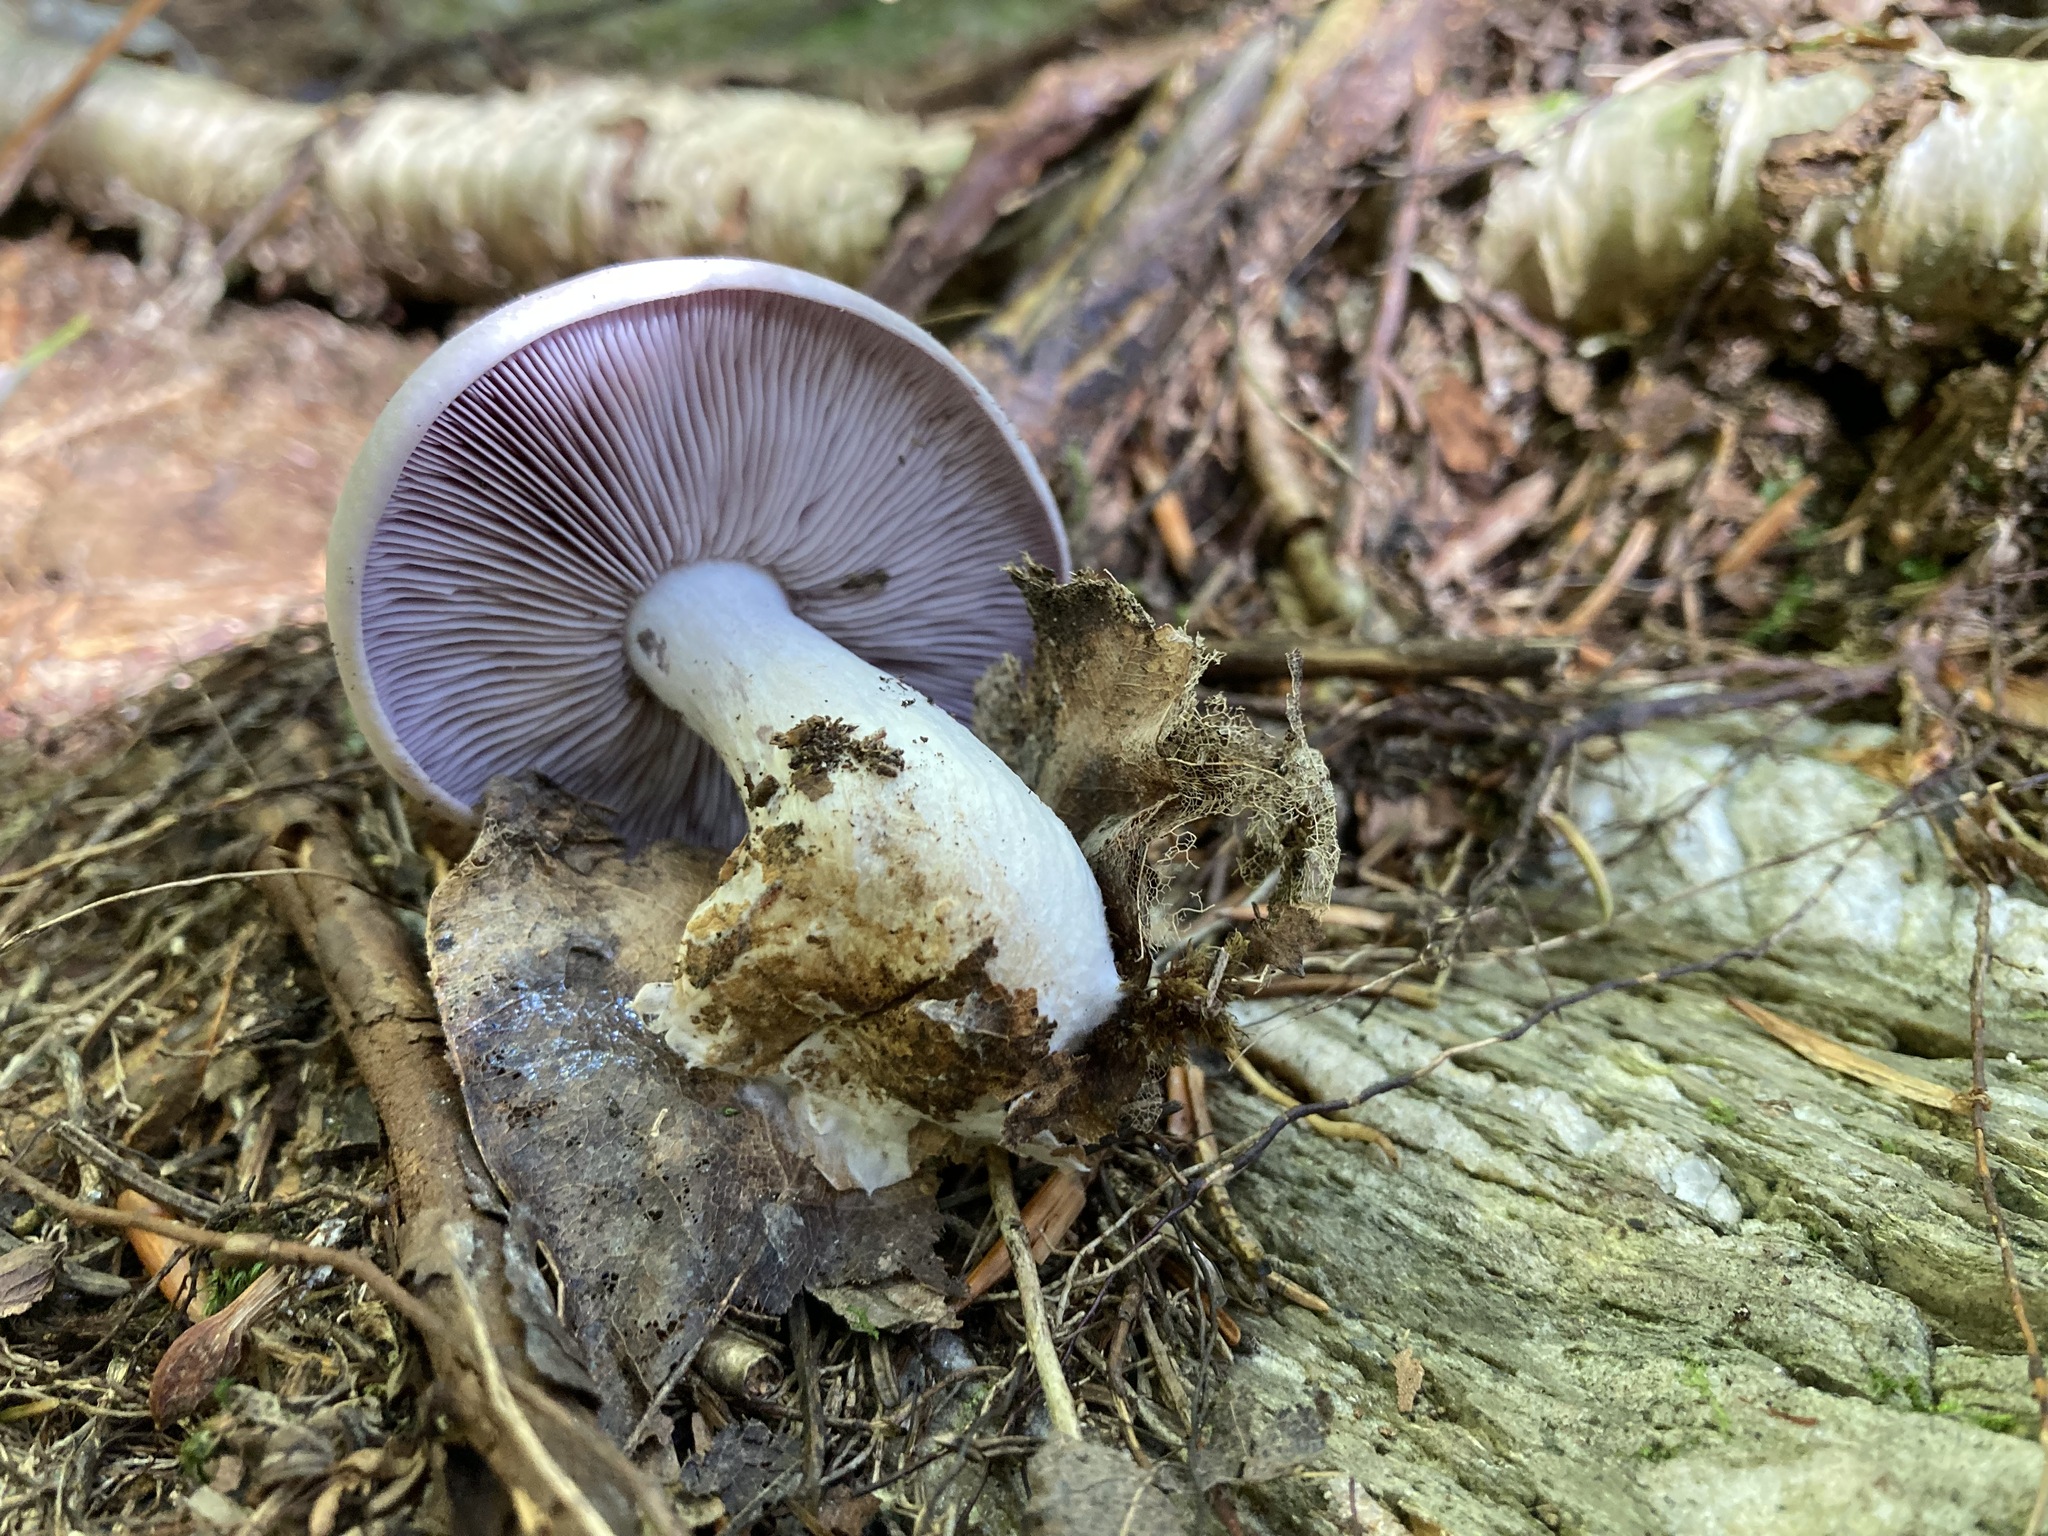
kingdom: Fungi
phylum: Basidiomycota
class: Agaricomycetes
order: Agaricales
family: Tricholomataceae
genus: Collybia
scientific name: Collybia
